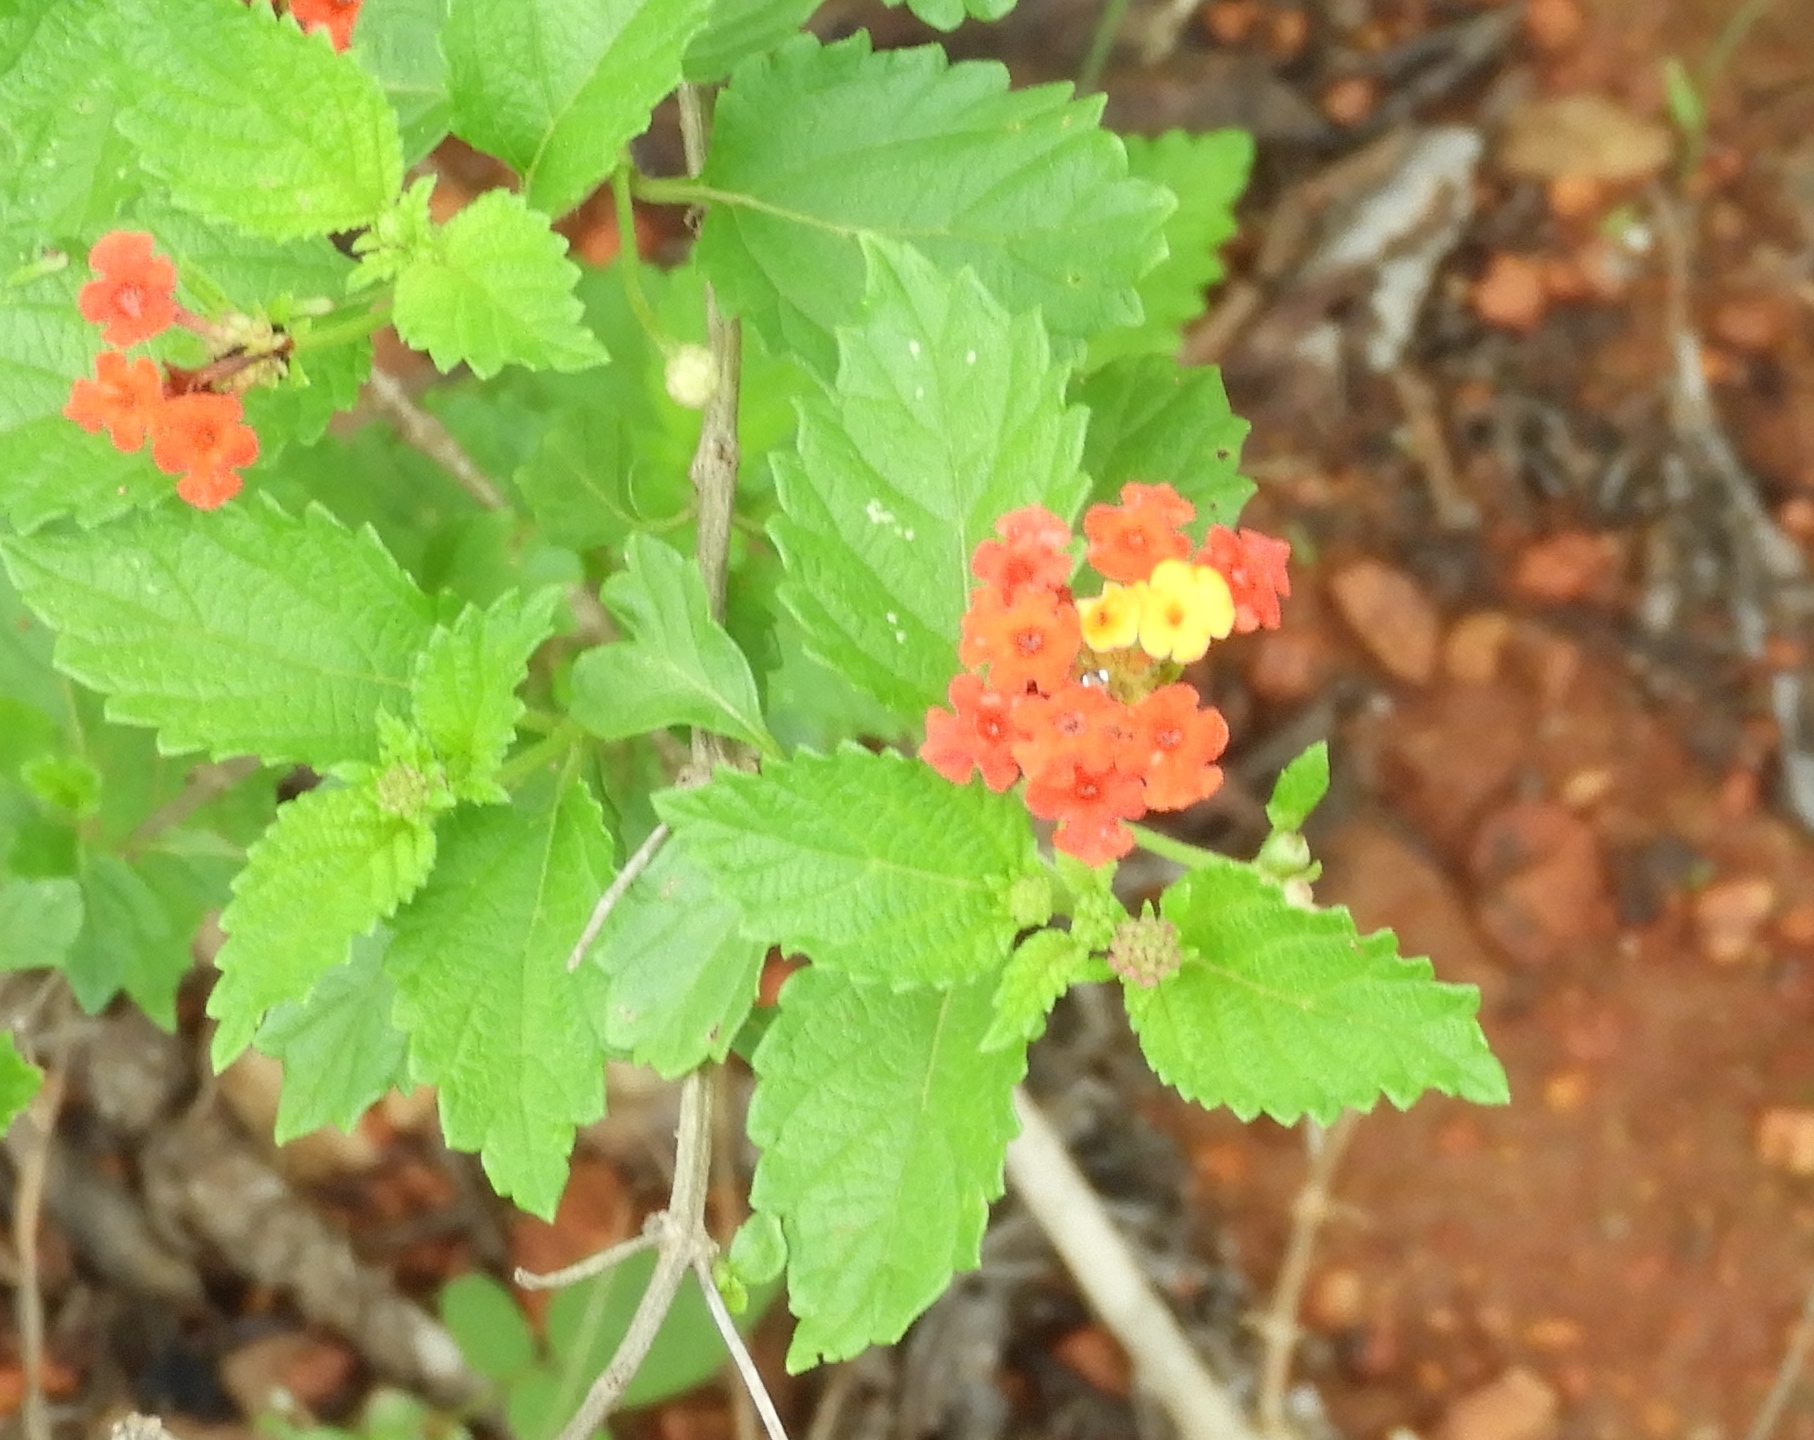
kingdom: Plantae
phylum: Tracheophyta
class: Magnoliopsida
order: Lamiales
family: Verbenaceae
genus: Lantana
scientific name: Lantana camara
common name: Lantana
